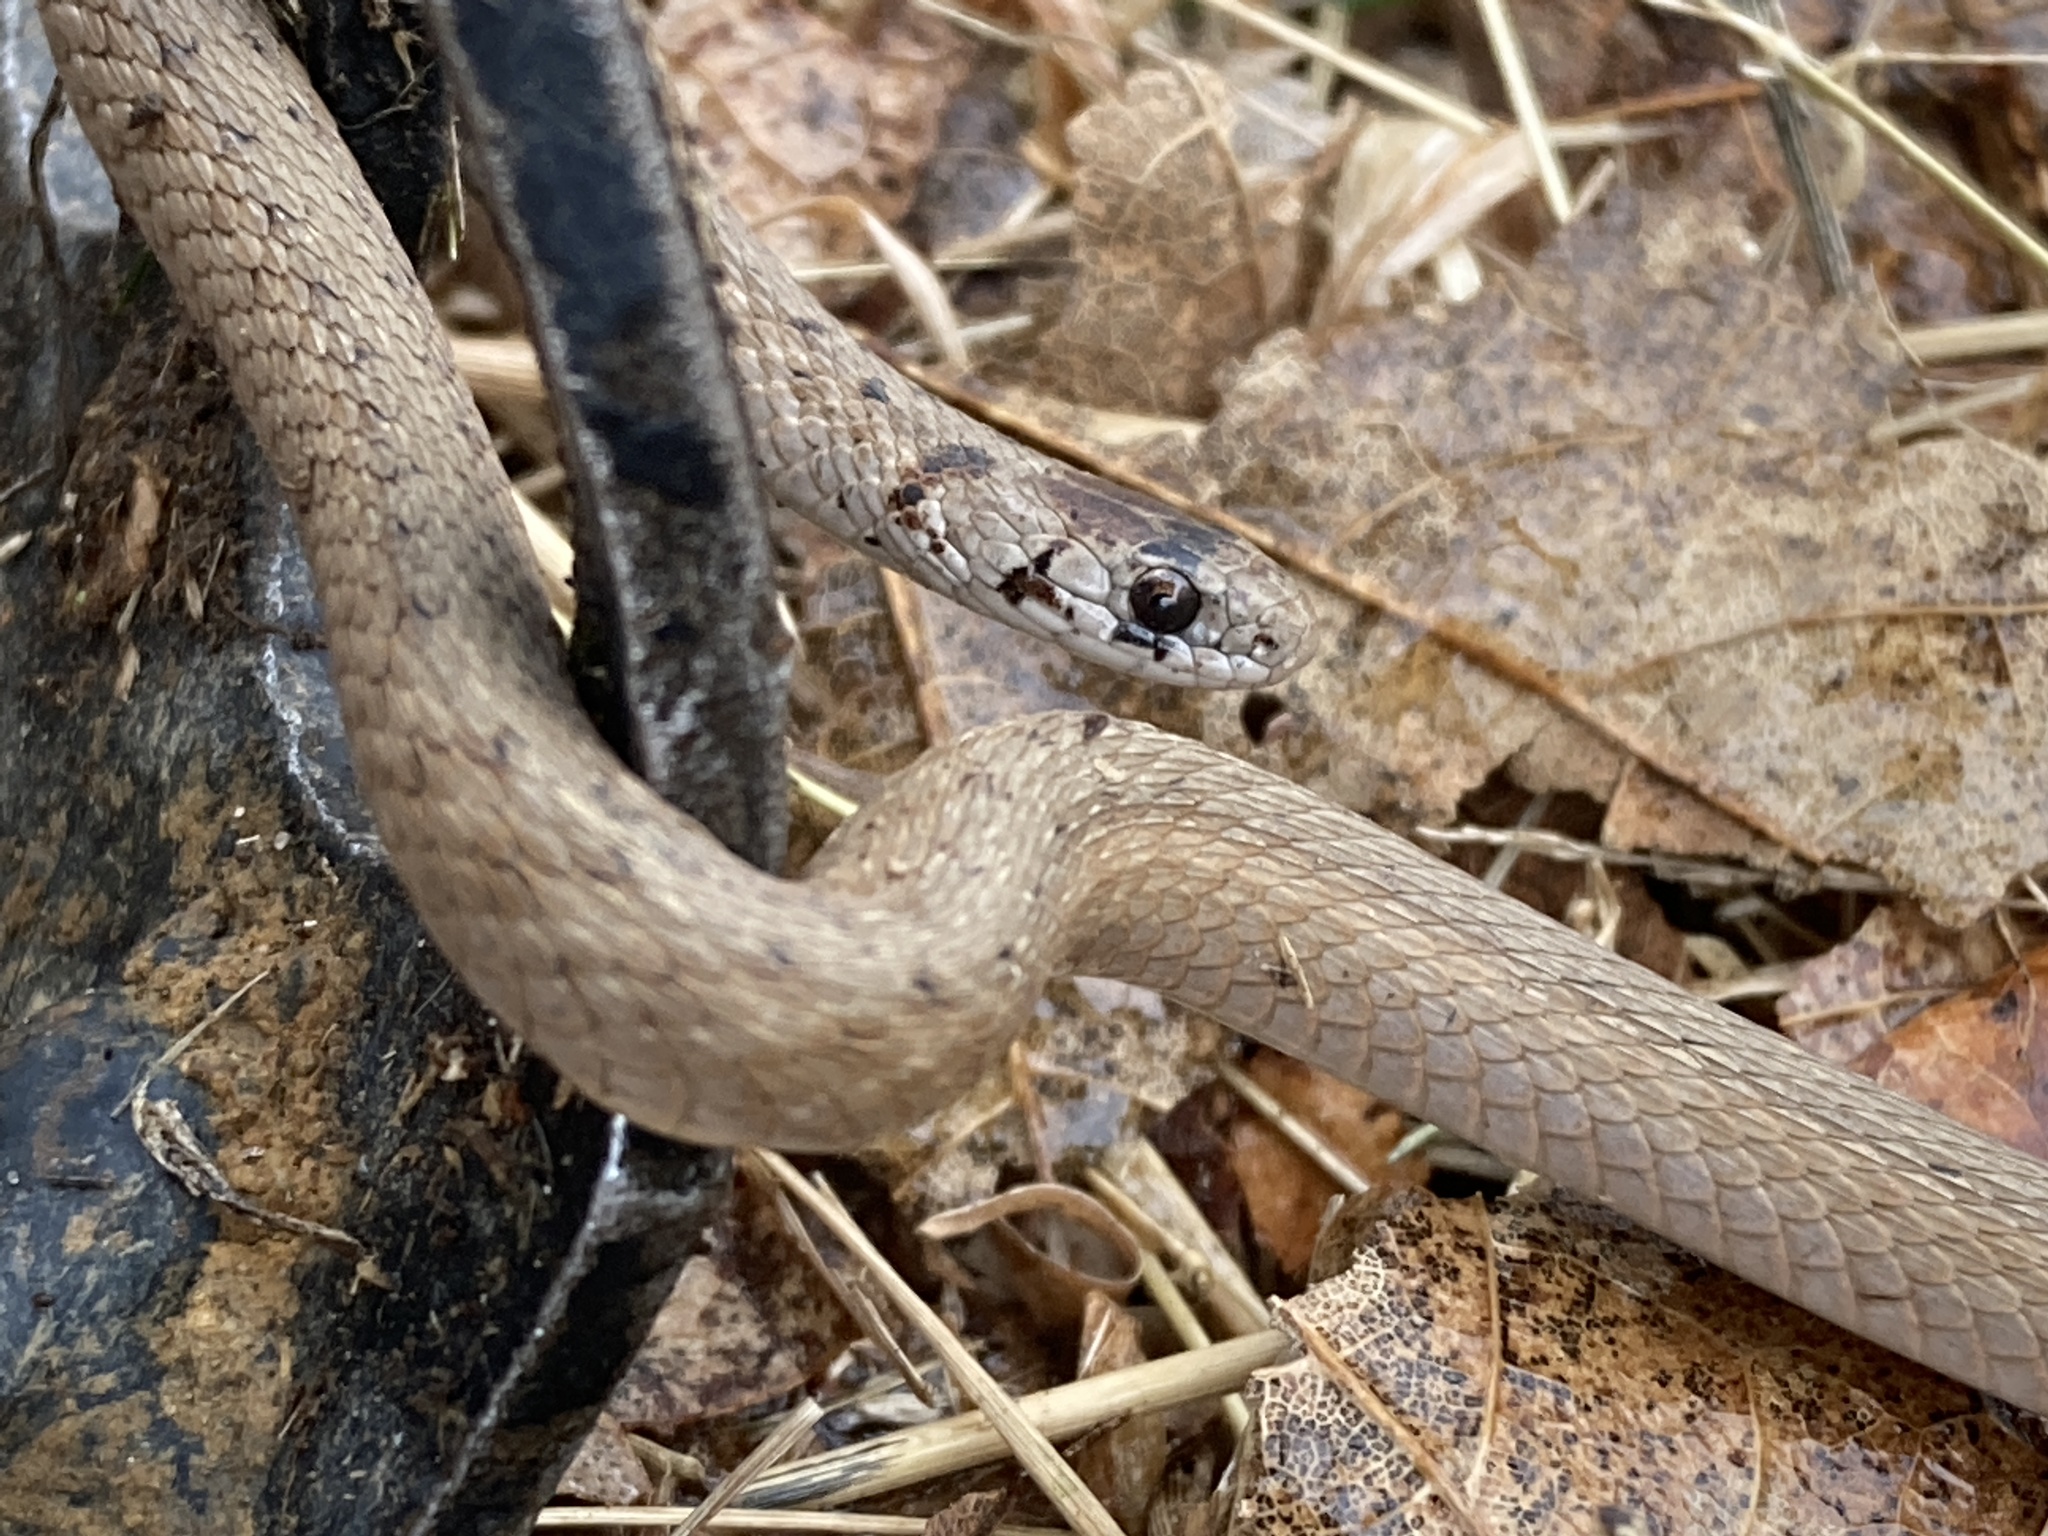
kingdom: Animalia
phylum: Chordata
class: Squamata
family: Colubridae
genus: Storeria
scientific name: Storeria dekayi
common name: (dekay’s) brown snake
